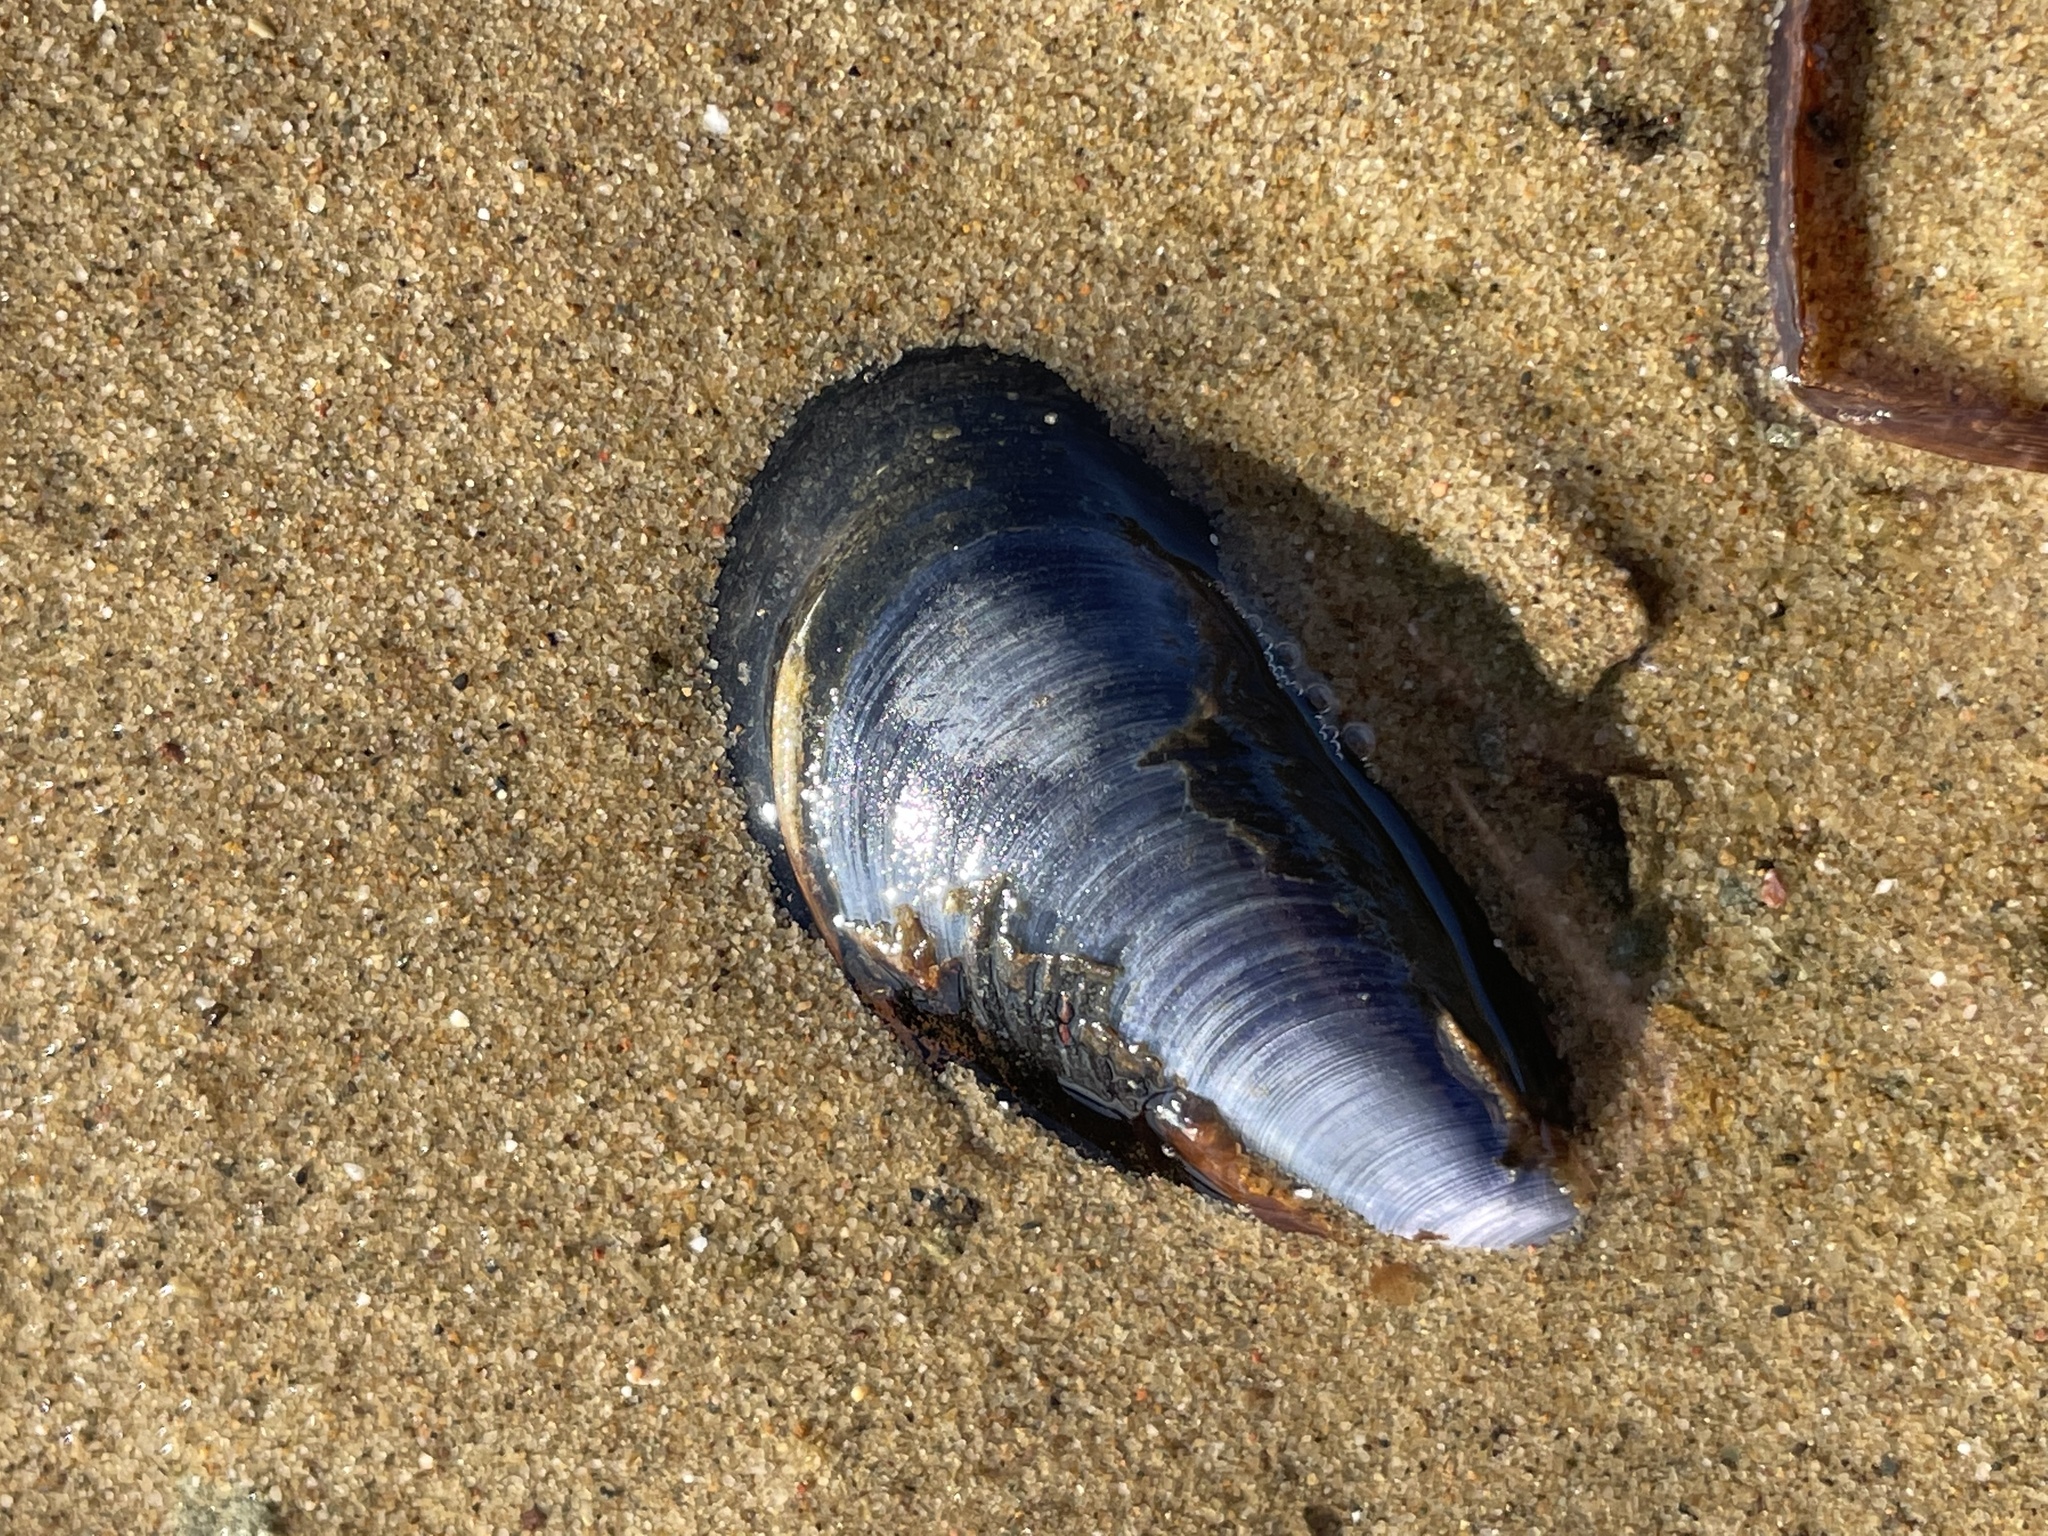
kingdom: Animalia
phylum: Mollusca
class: Bivalvia
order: Mytilida
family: Mytilidae
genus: Mytilus
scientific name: Mytilus edulis
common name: Blue mussel
